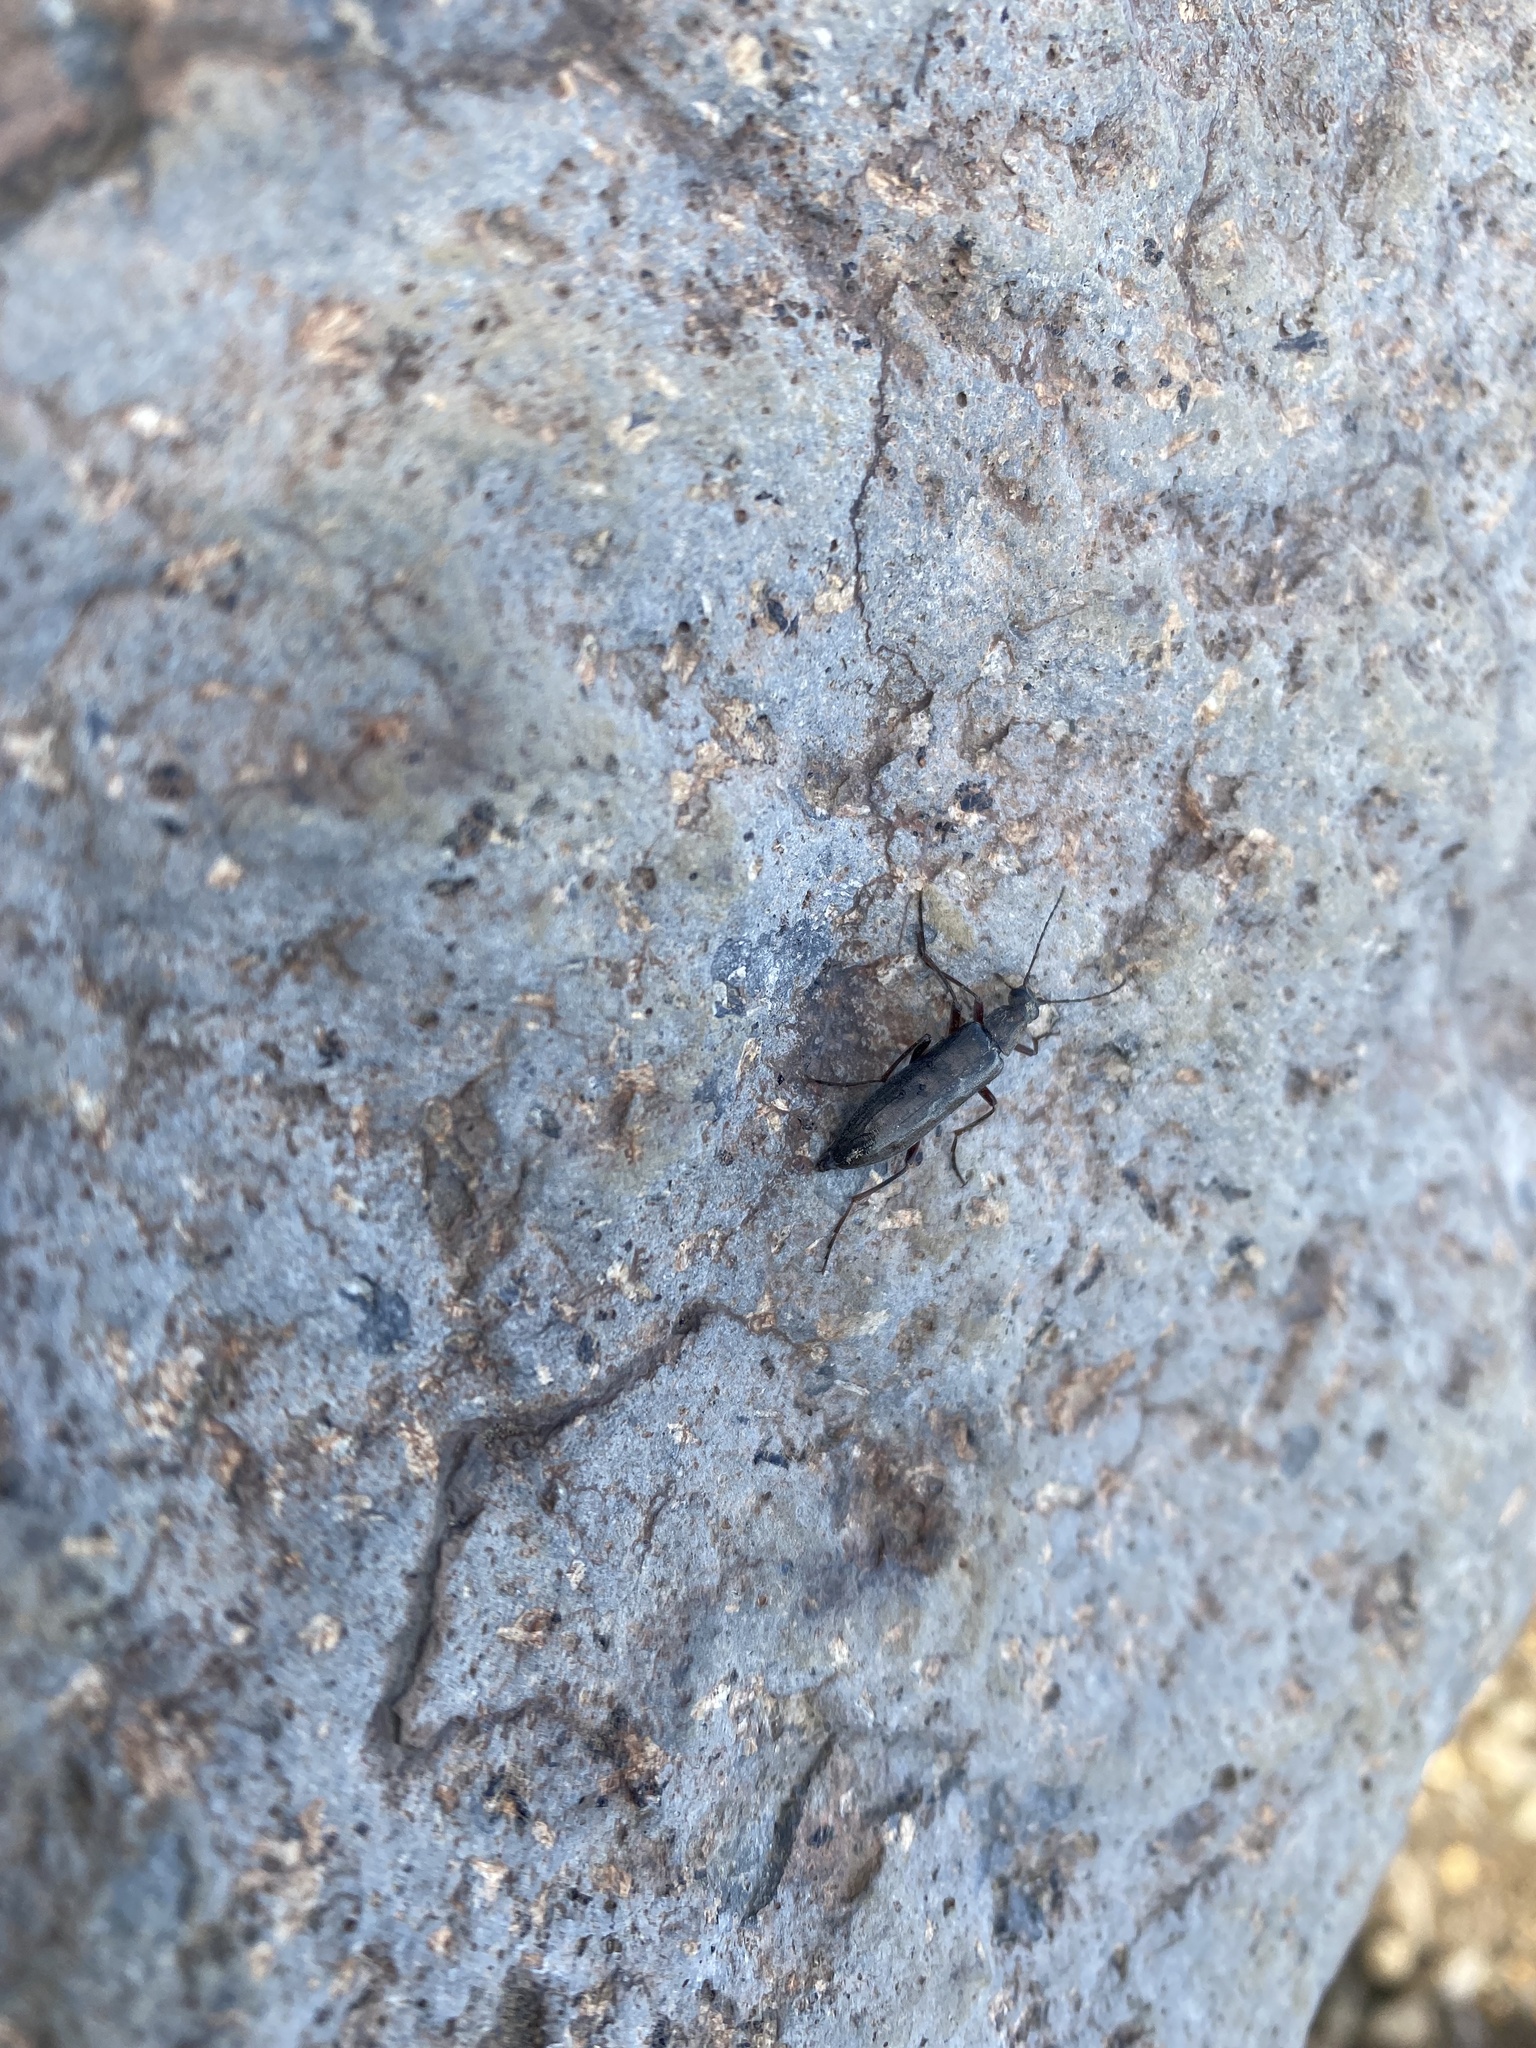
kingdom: Animalia
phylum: Arthropoda
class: Insecta
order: Coleoptera
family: Stenotrachelidae
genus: Stenotrachelus
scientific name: Stenotrachelus aeneus
